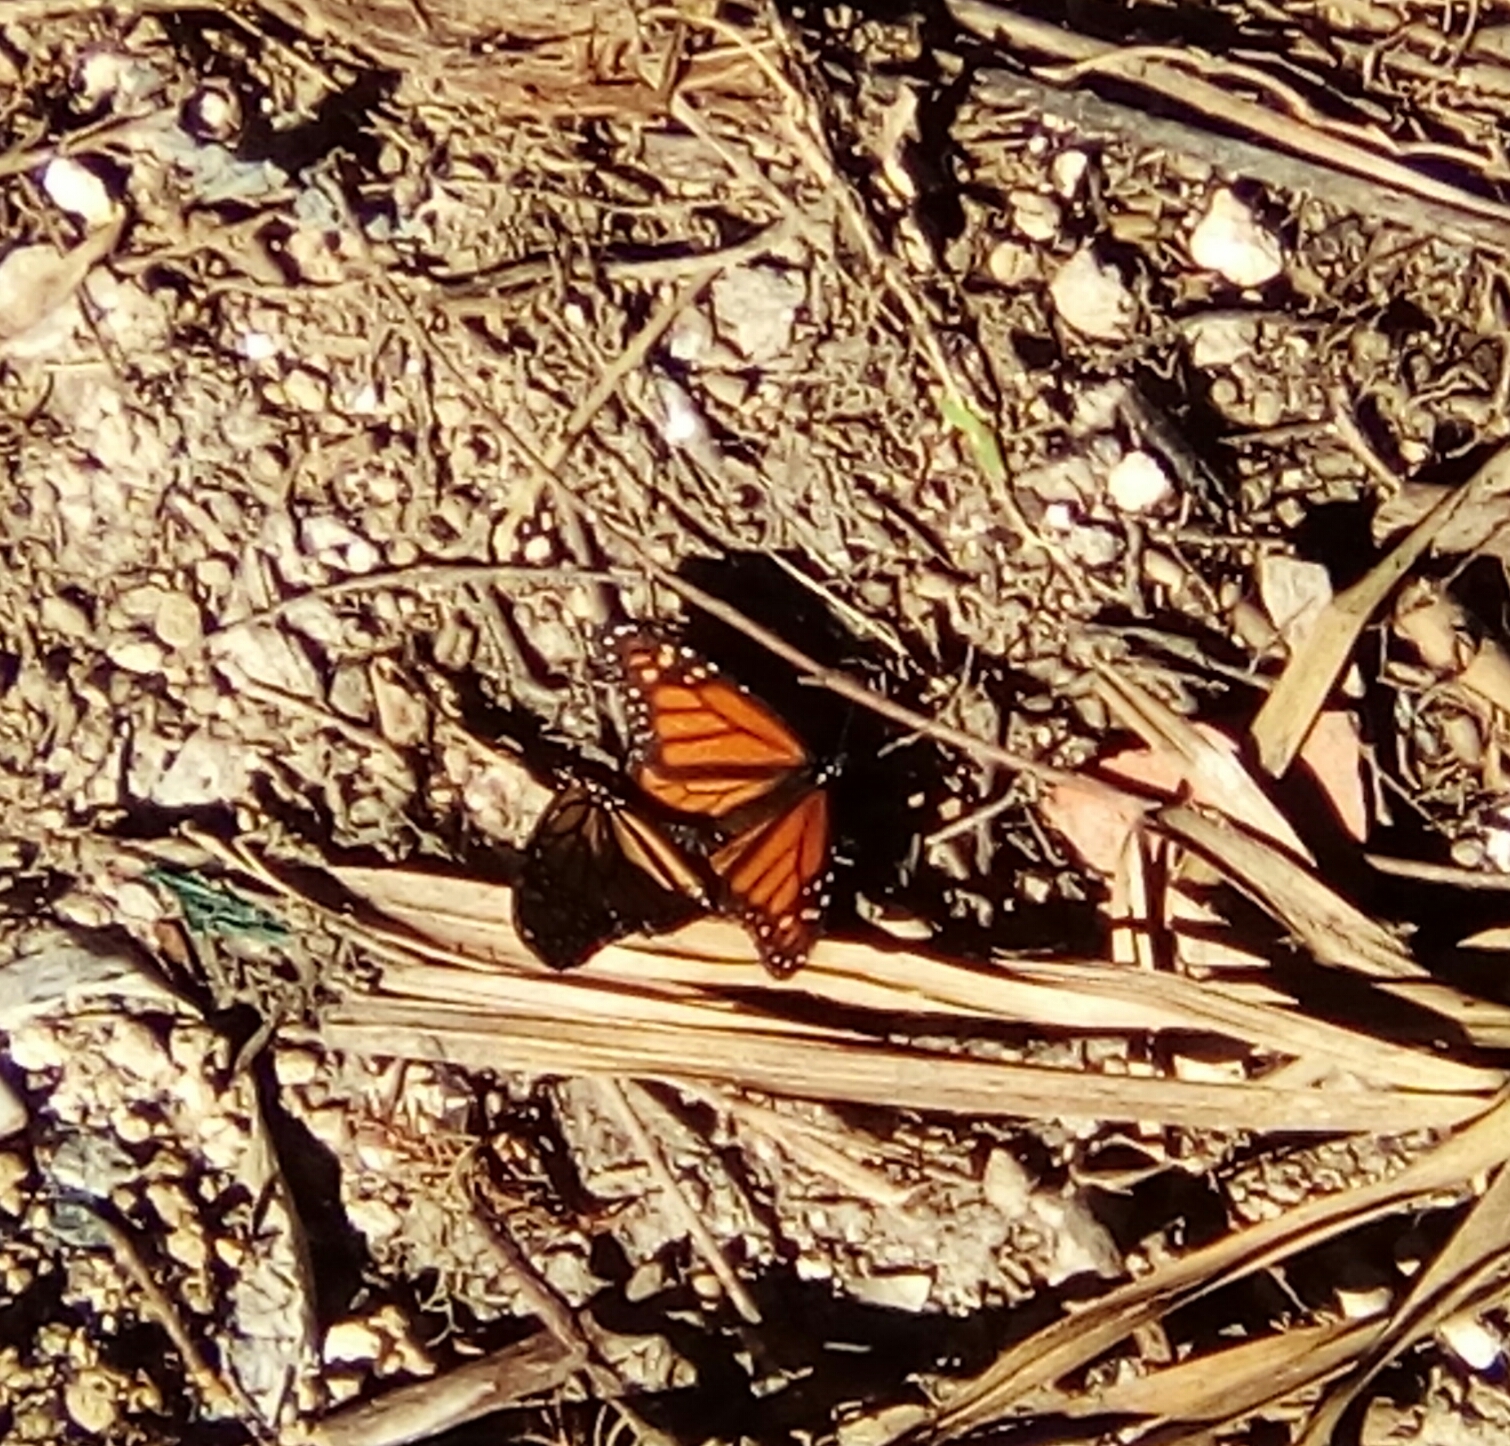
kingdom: Animalia
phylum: Arthropoda
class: Insecta
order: Lepidoptera
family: Nymphalidae
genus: Danaus
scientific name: Danaus plexippus
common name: Monarch
